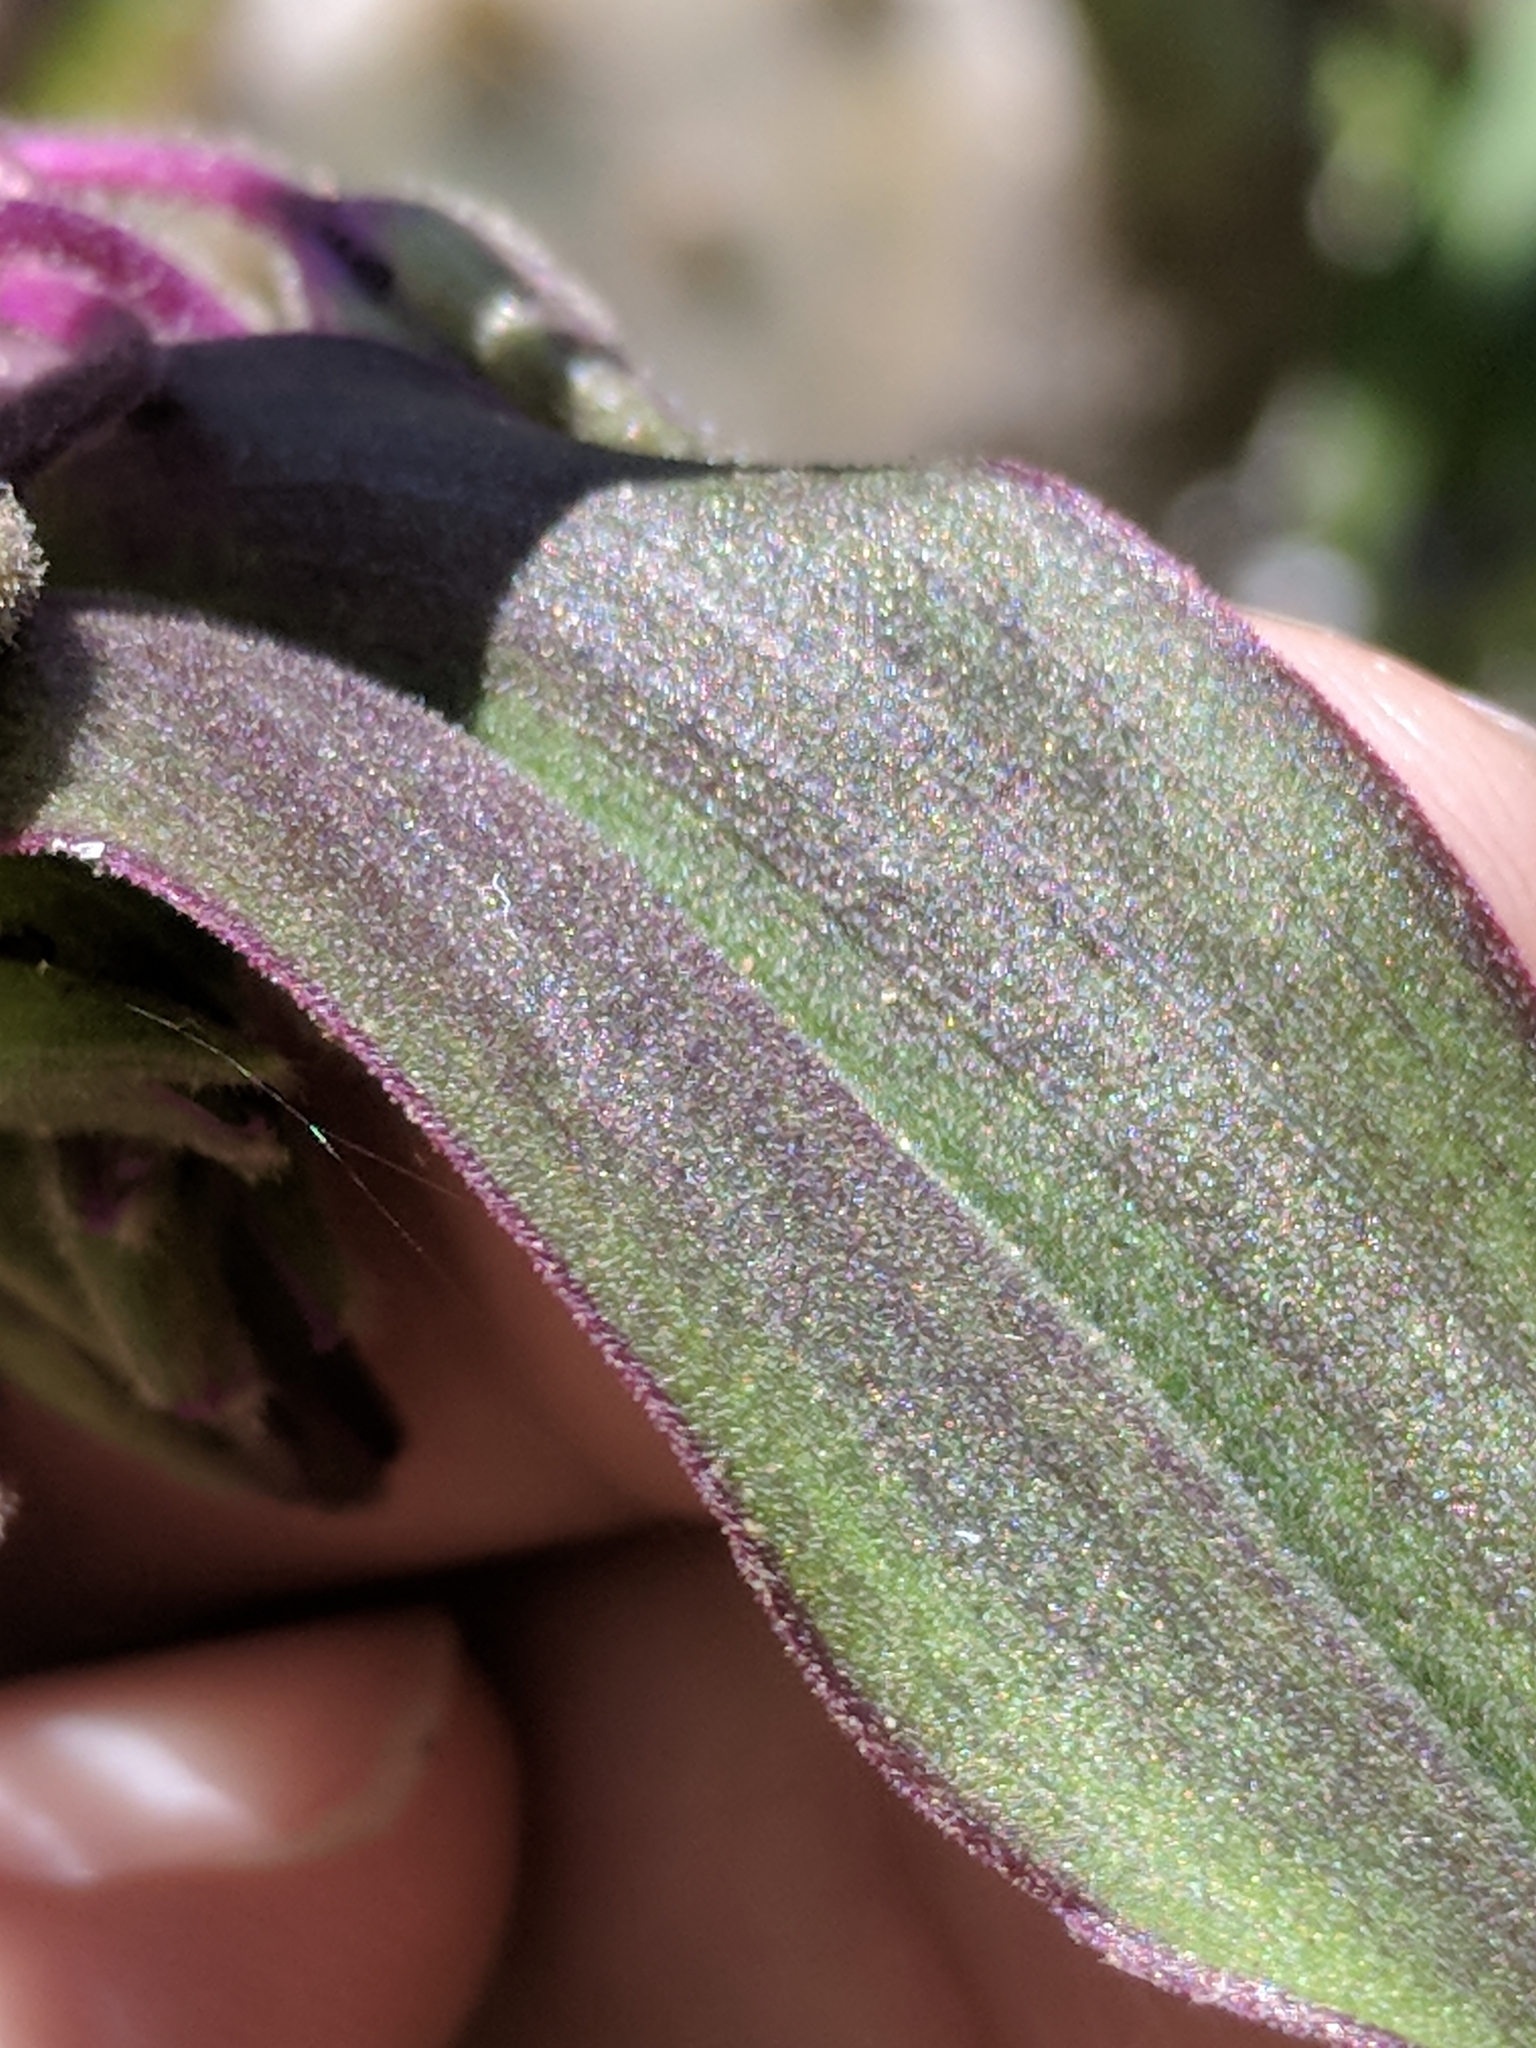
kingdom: Plantae
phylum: Tracheophyta
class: Liliopsida
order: Commelinales
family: Commelinaceae
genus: Tradescantia
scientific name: Tradescantia edwardsiana
